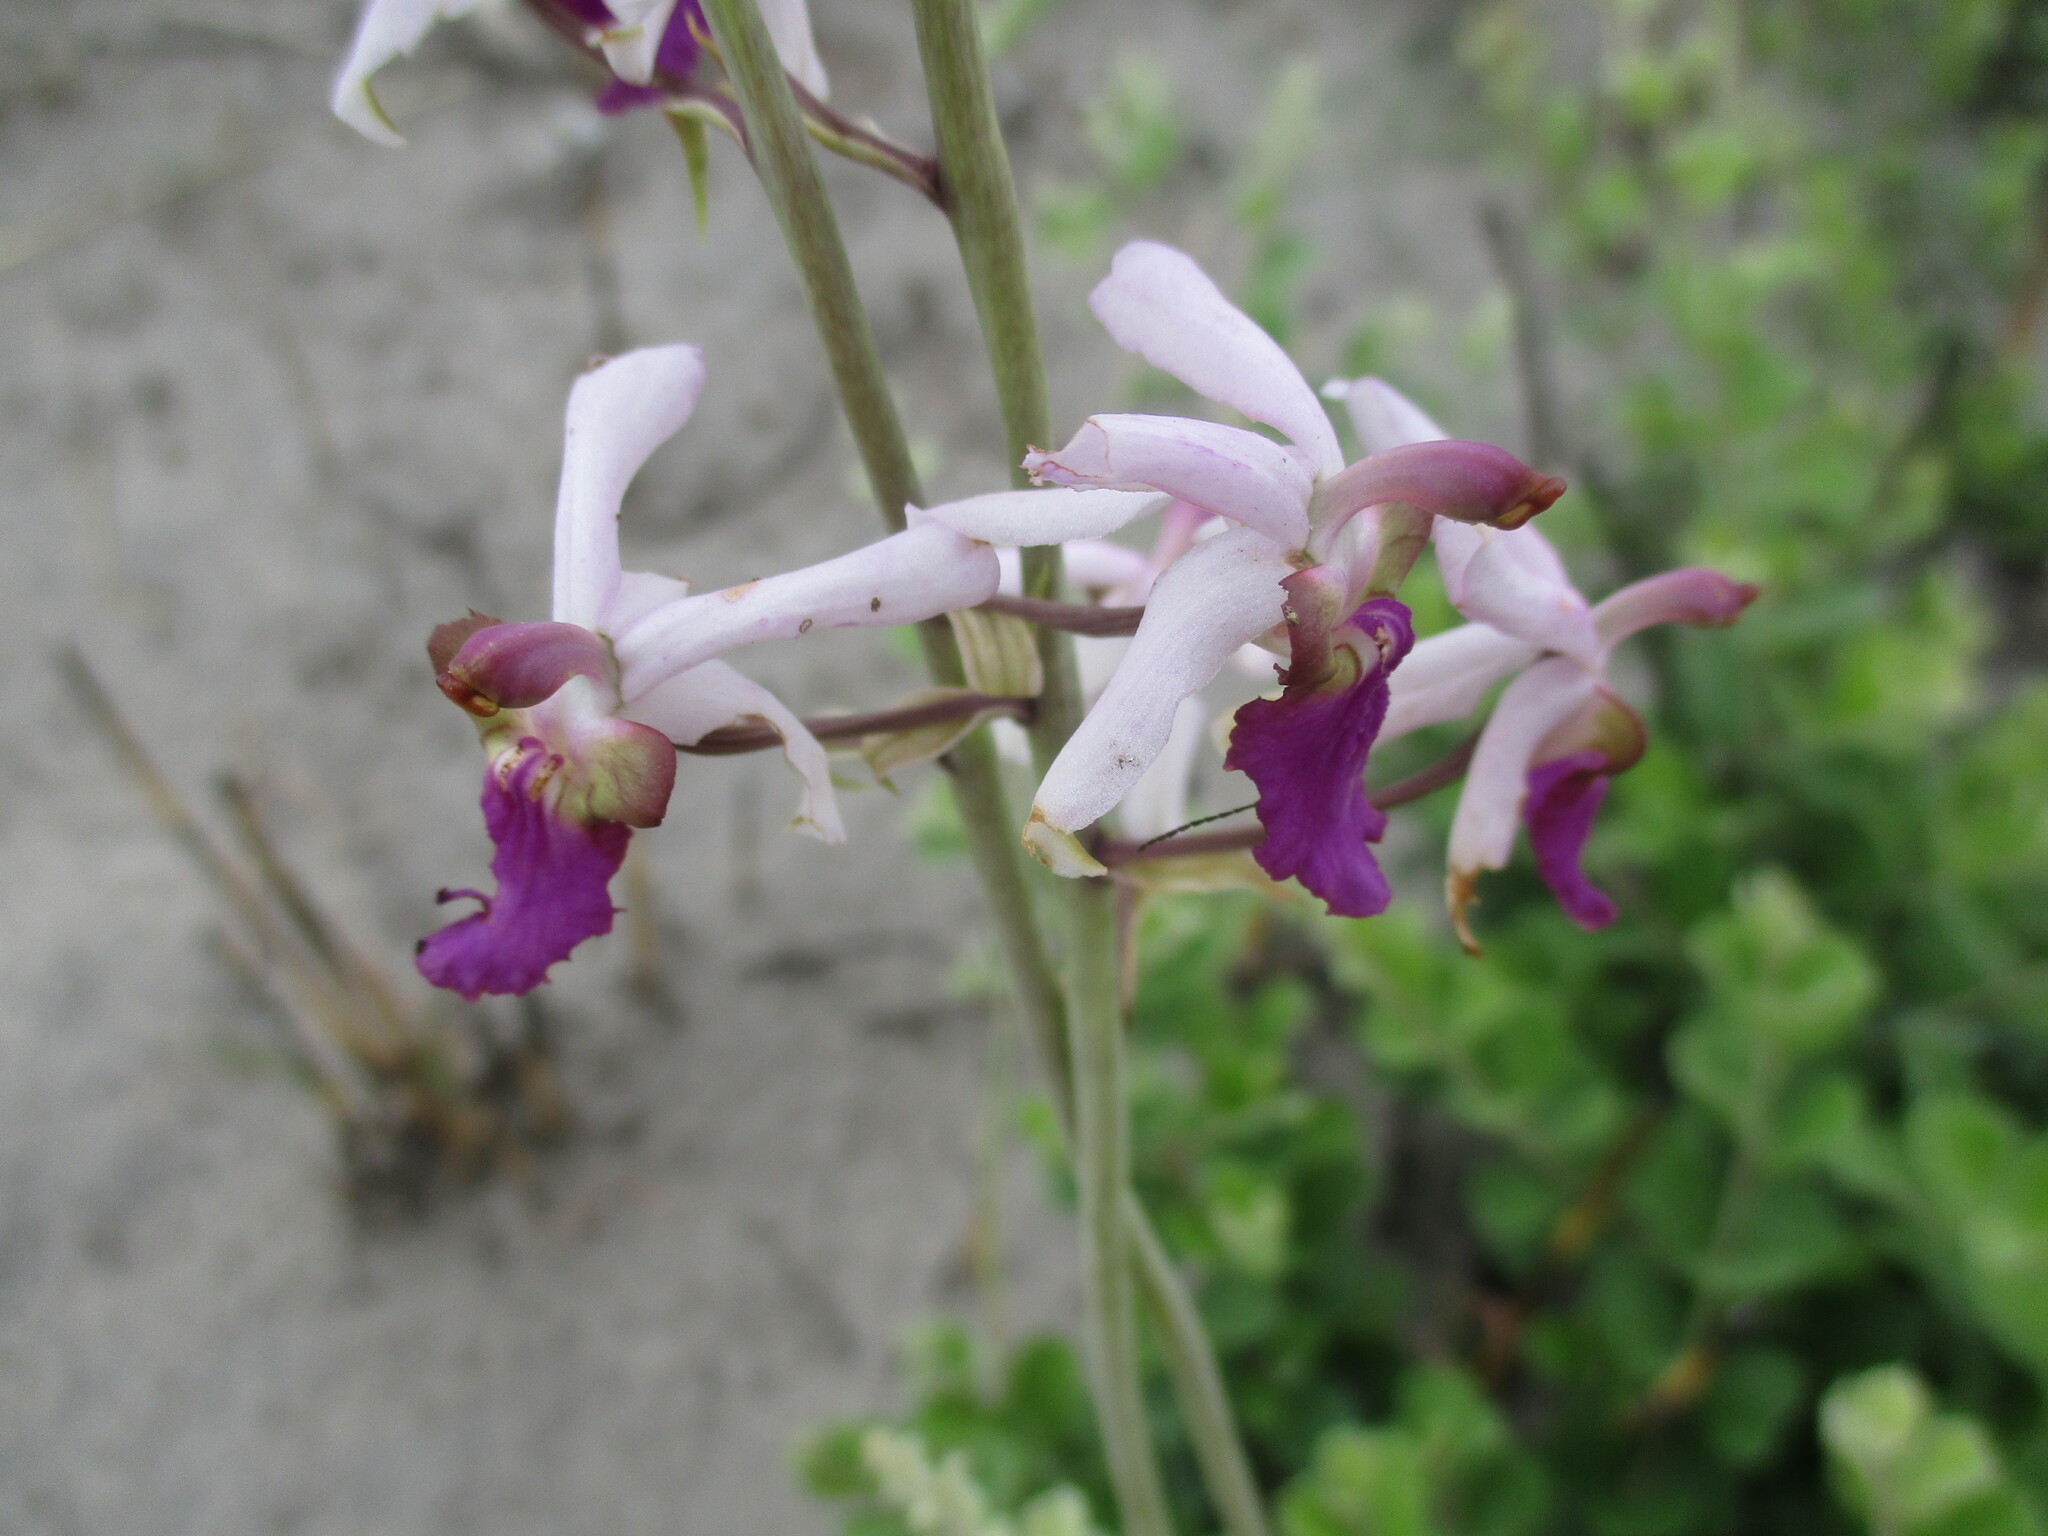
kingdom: Plantae
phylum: Tracheophyta
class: Liliopsida
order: Asparagales
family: Orchidaceae
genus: Eulophia
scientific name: Eulophia livingstoneana
